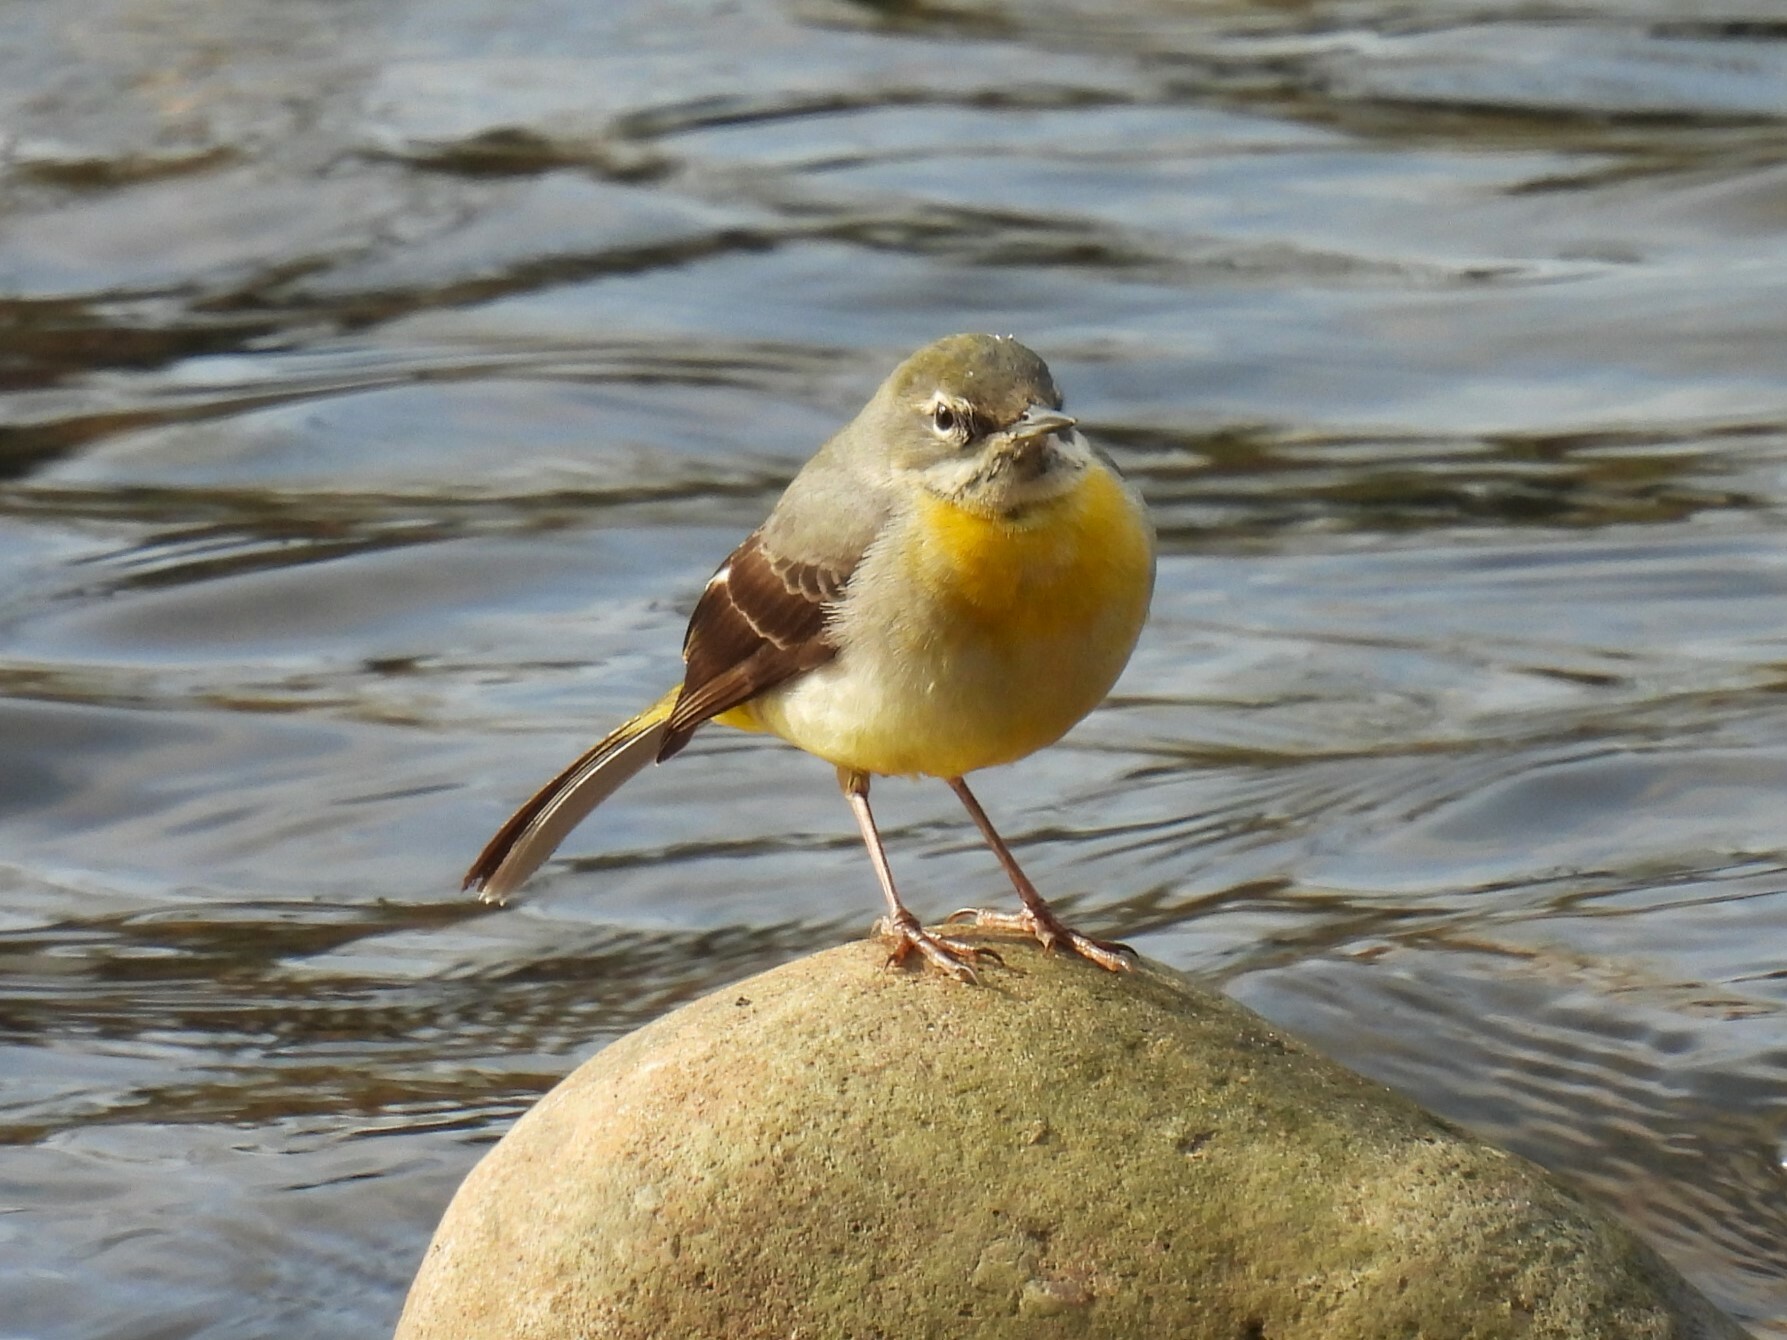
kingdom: Animalia
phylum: Chordata
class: Aves
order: Passeriformes
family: Motacillidae
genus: Motacilla
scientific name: Motacilla cinerea
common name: Grey wagtail
